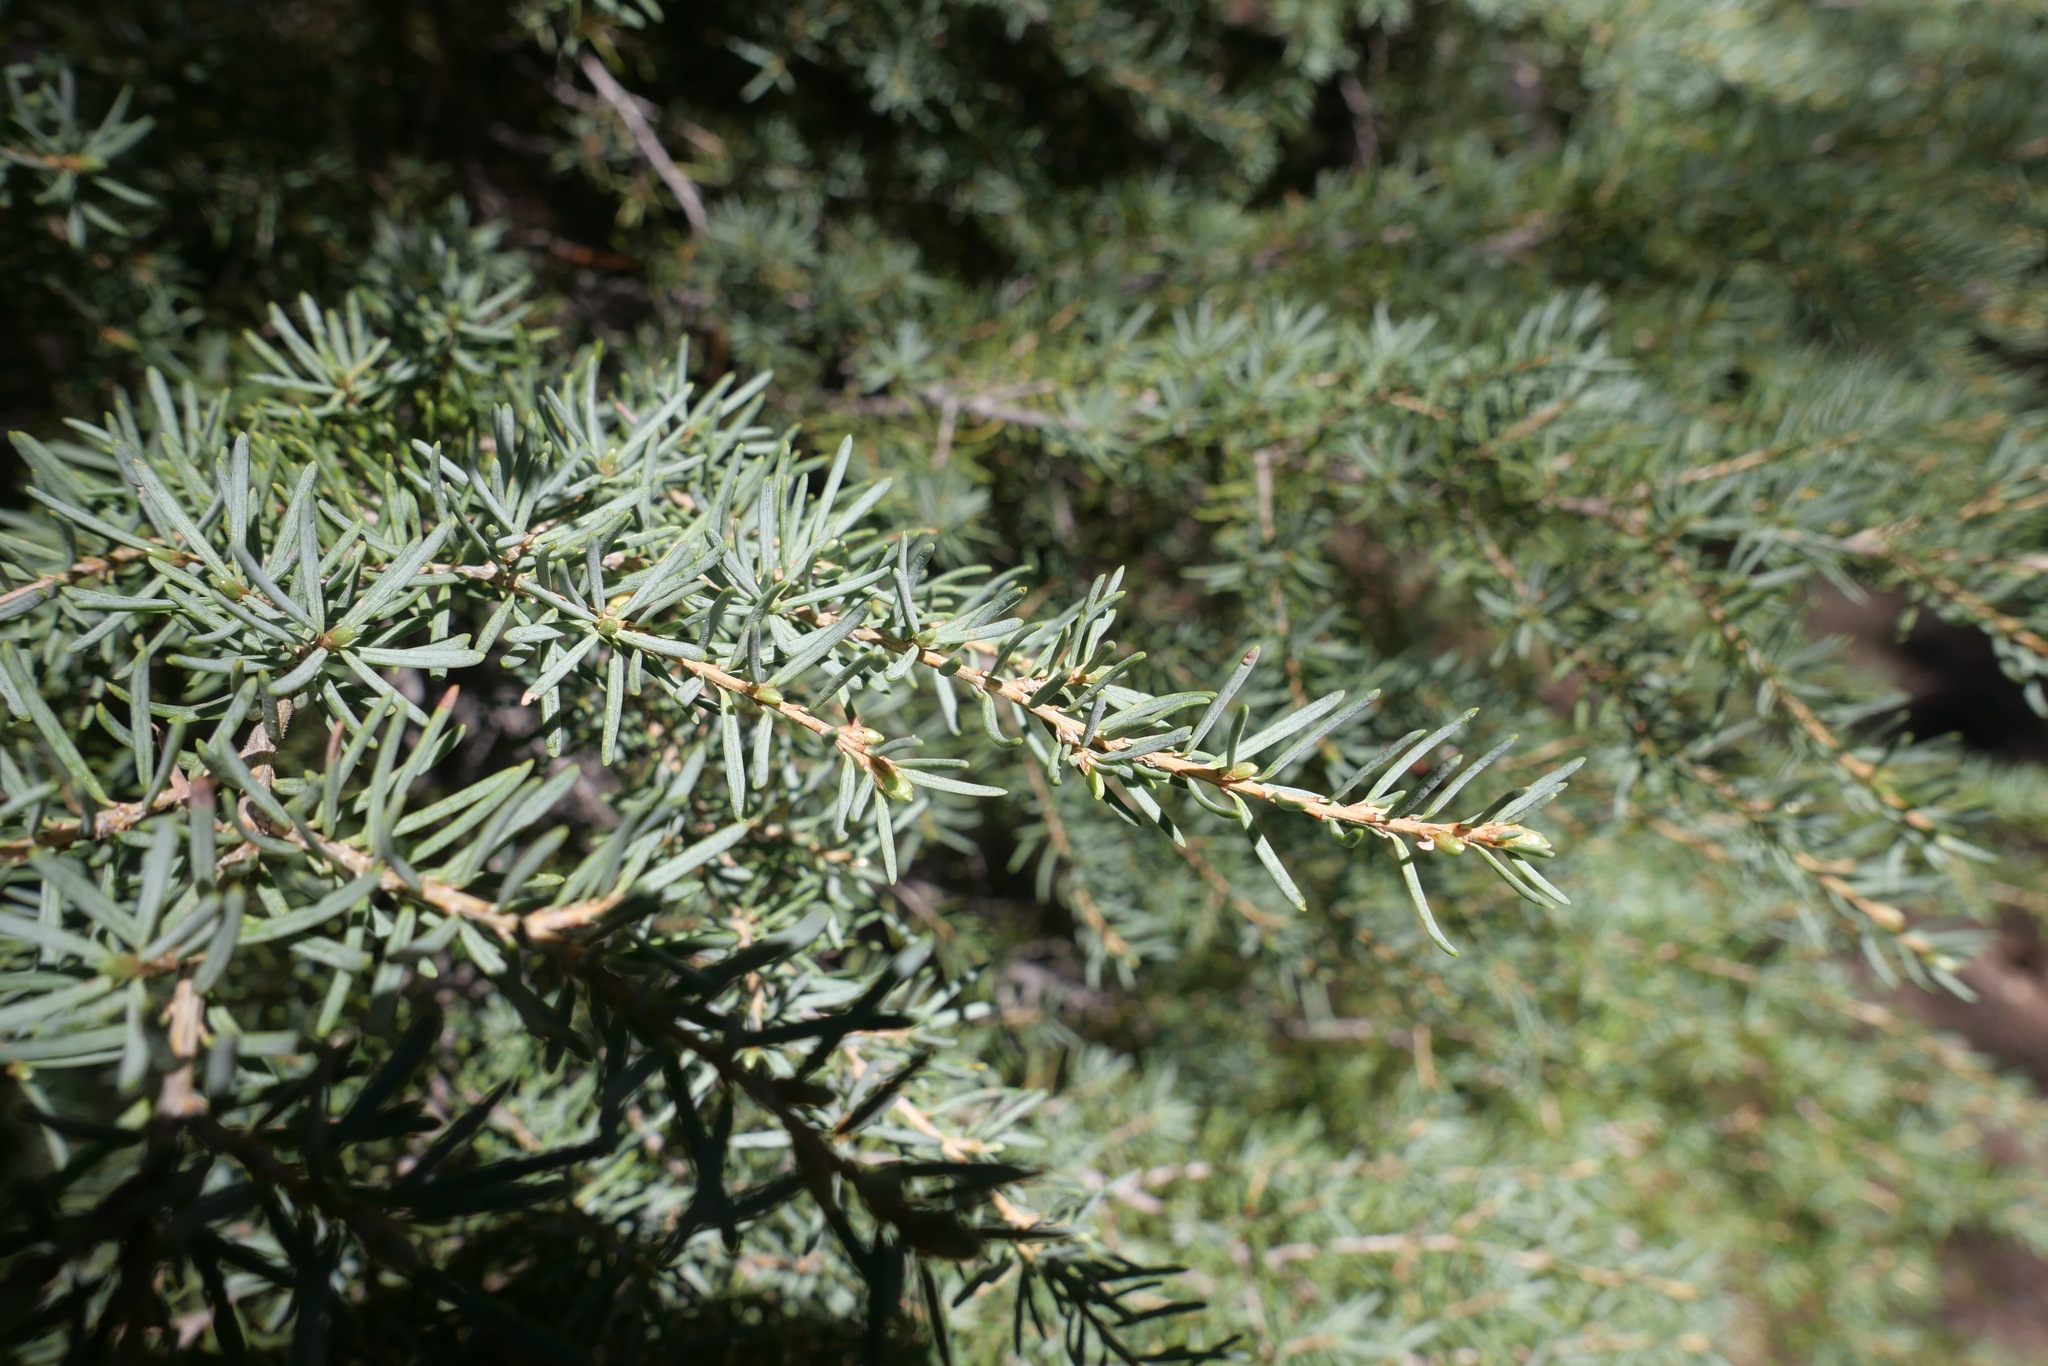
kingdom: Plantae
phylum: Tracheophyta
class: Pinopsida
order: Pinales
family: Pinaceae
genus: Tsuga
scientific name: Tsuga mertensiana
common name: Mountain hemlock
